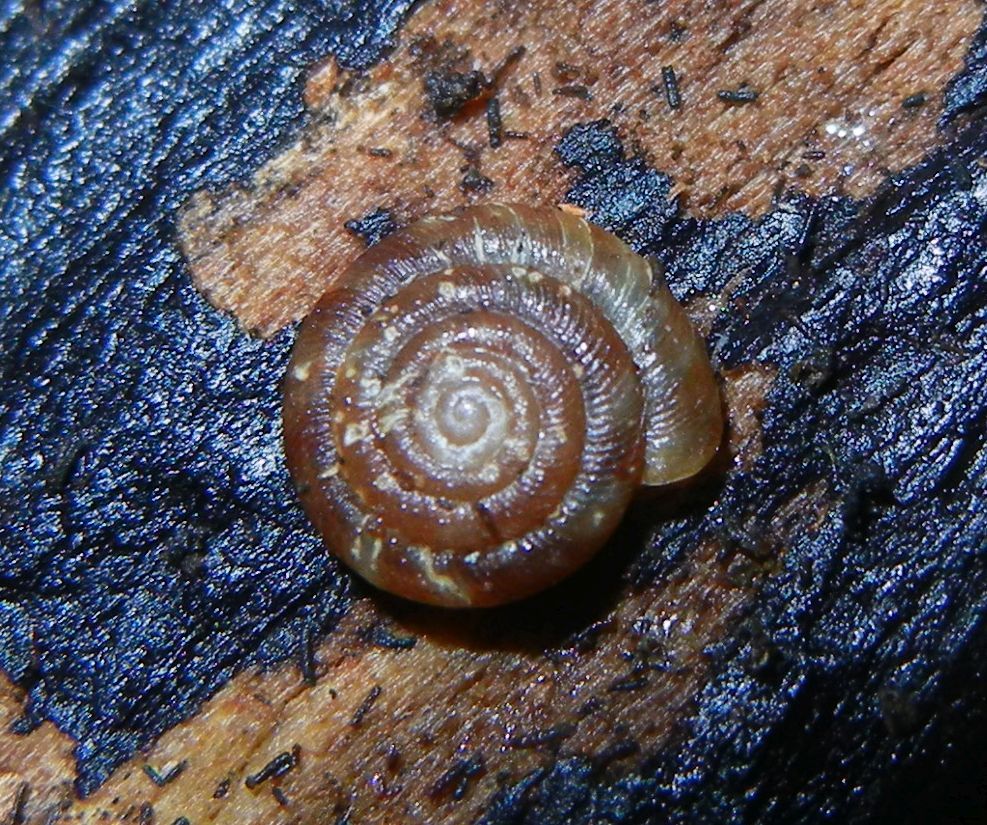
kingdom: Animalia
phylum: Mollusca
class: Gastropoda
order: Stylommatophora
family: Discidae
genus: Discus
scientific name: Discus rotundatus
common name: Rounded snail
